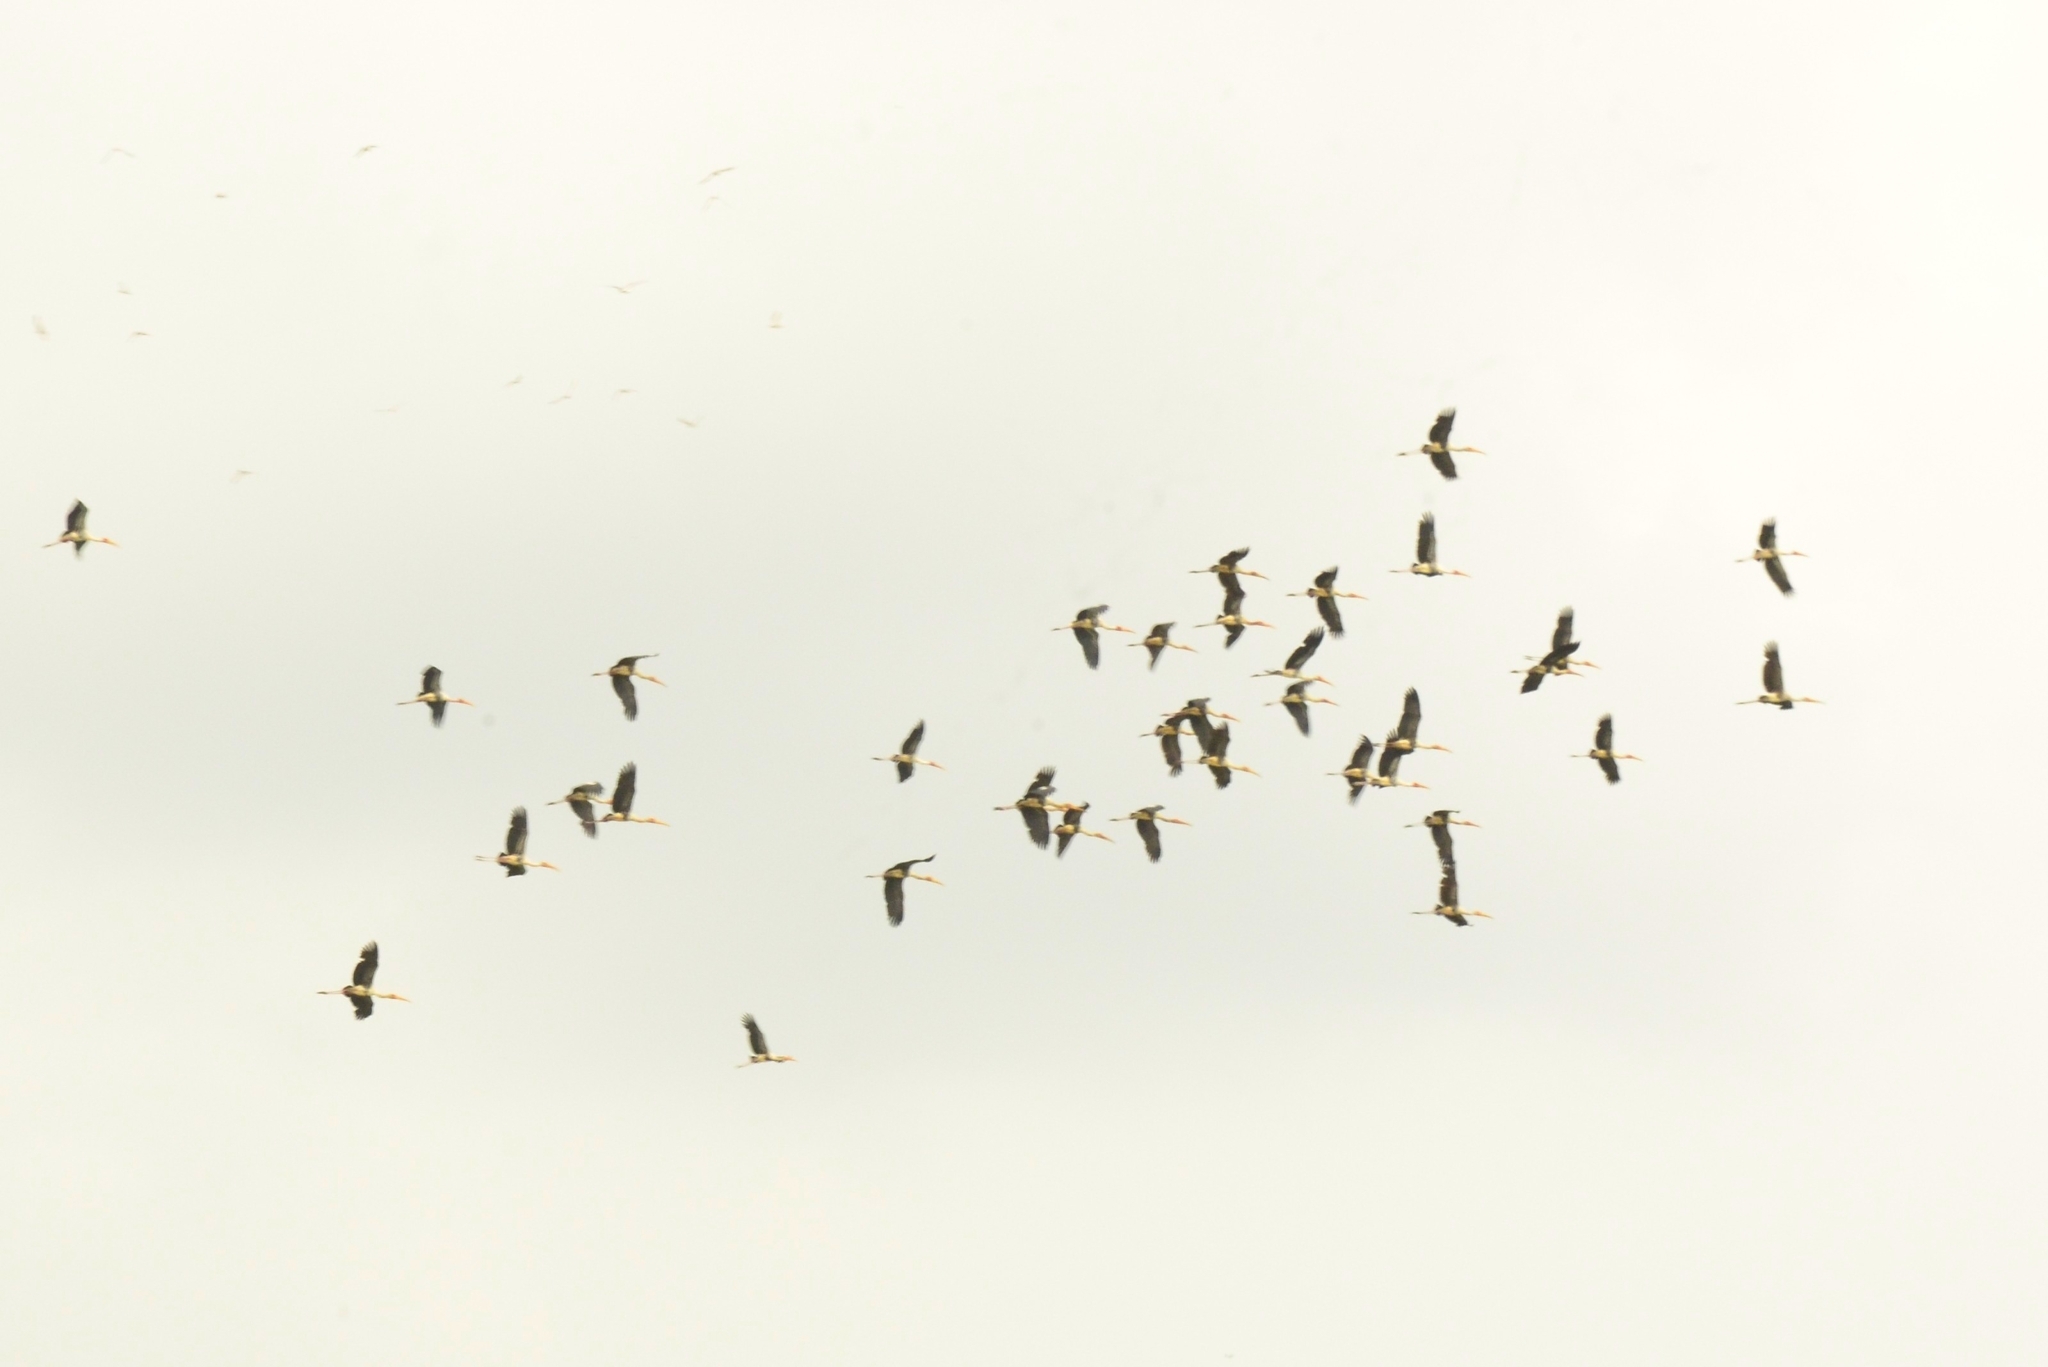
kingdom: Animalia
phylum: Chordata
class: Aves
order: Ciconiiformes
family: Ciconiidae
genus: Mycteria
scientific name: Mycteria leucocephala
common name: Painted stork
